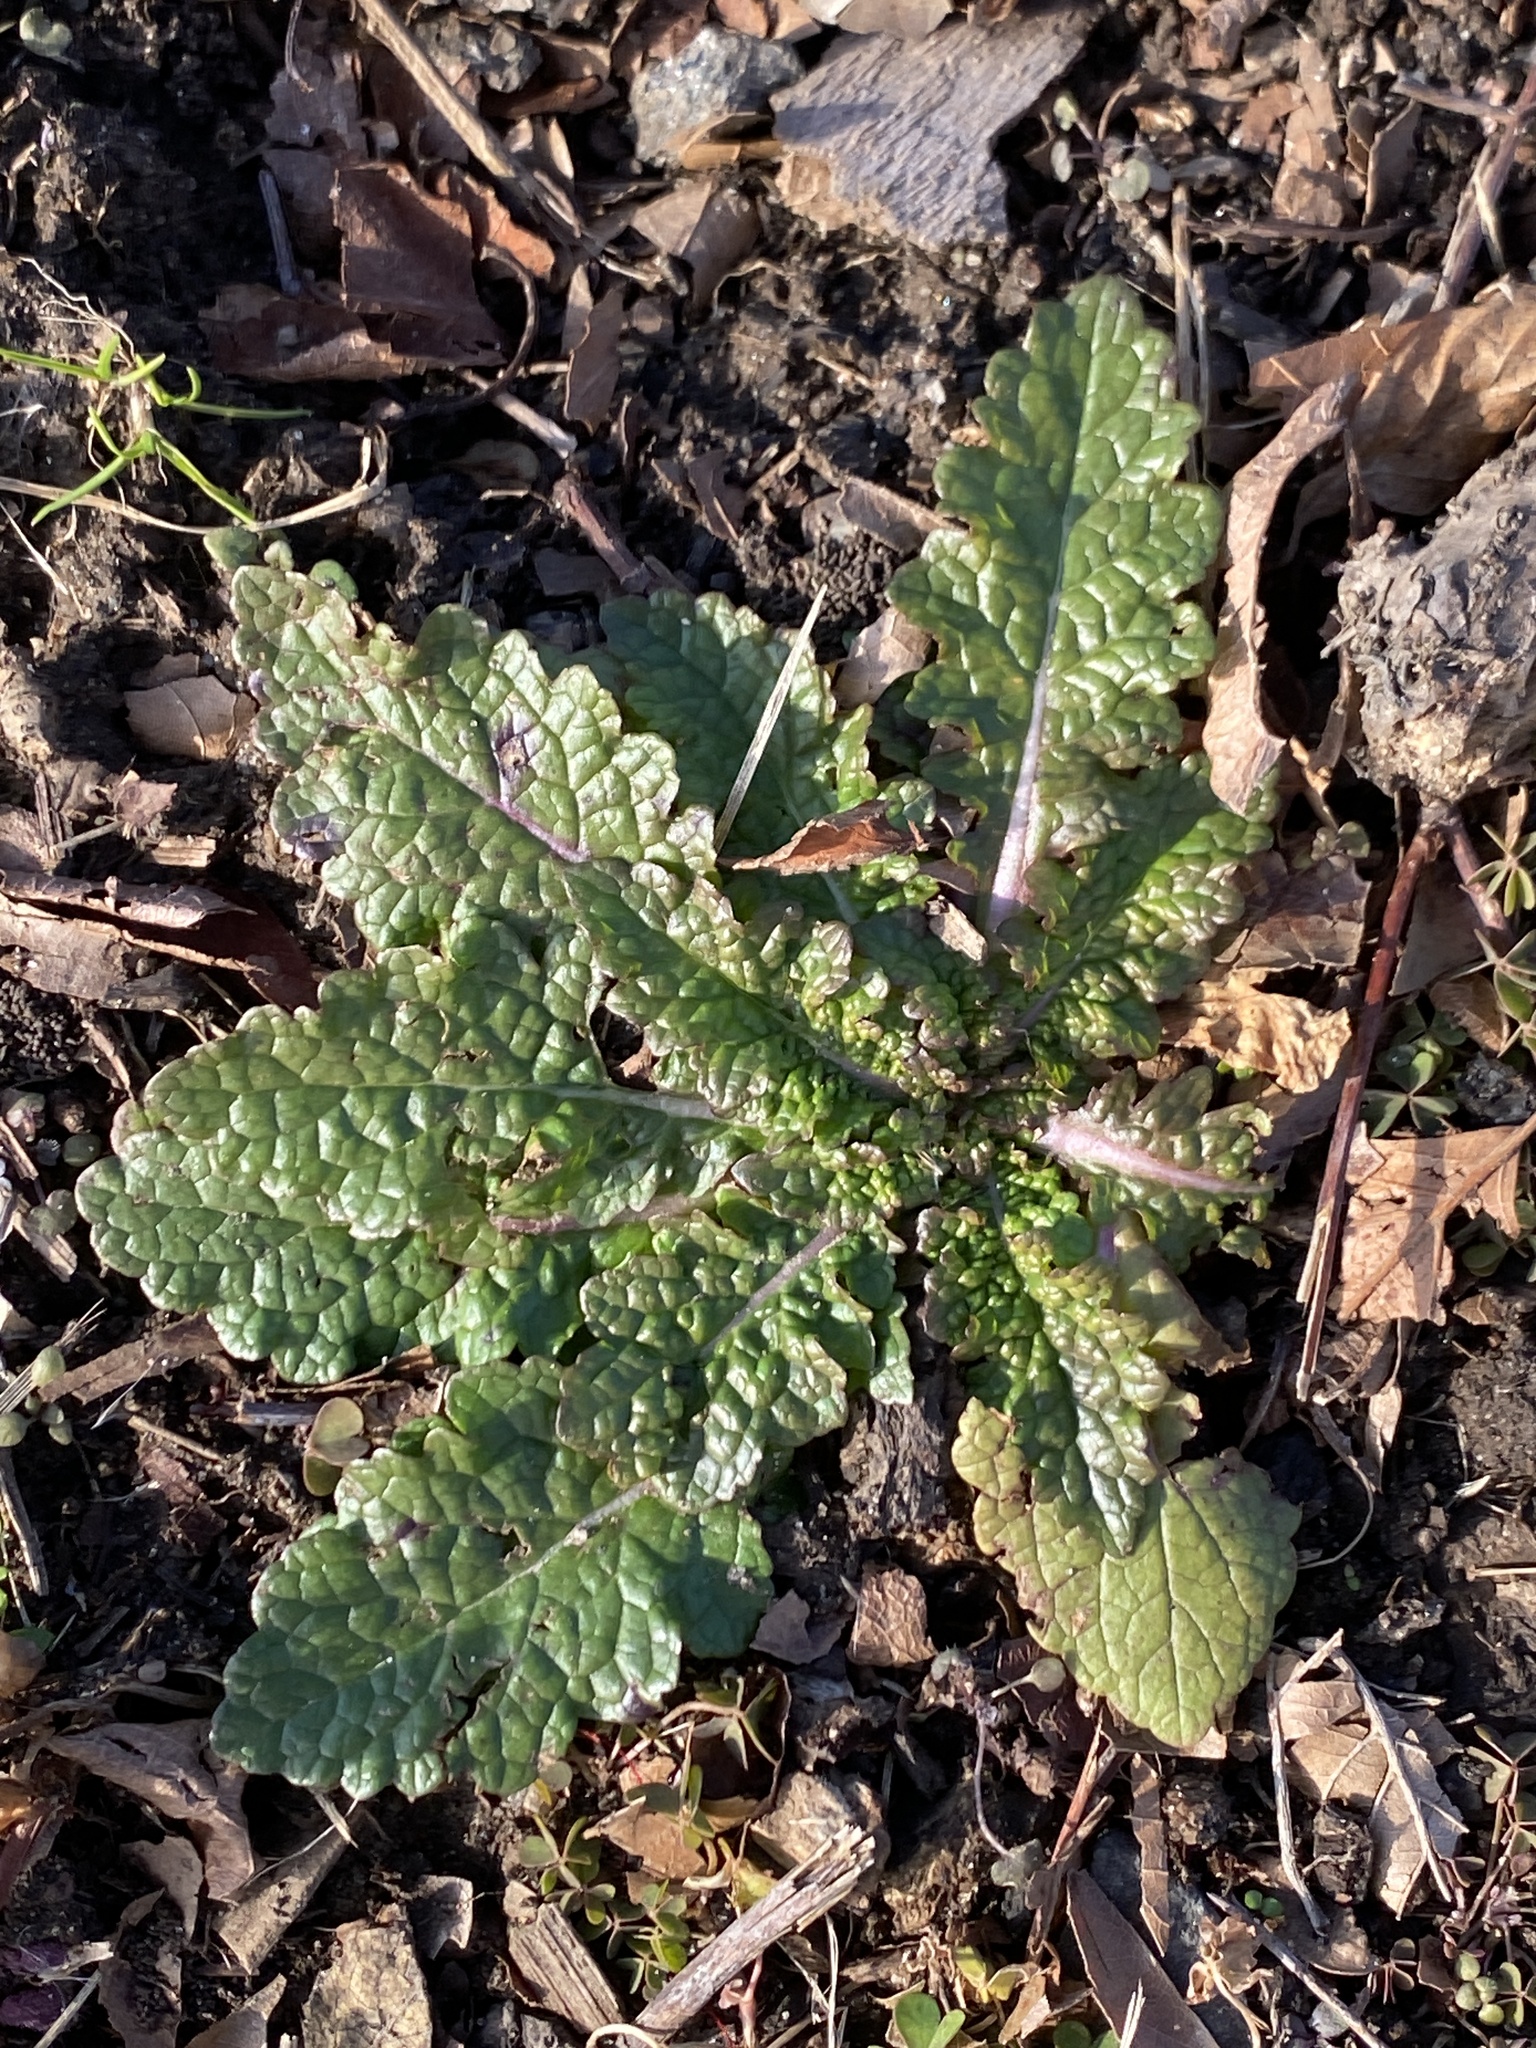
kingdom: Plantae
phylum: Tracheophyta
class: Magnoliopsida
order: Lamiales
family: Scrophulariaceae
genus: Verbascum
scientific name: Verbascum blattaria
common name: Moth mullein
